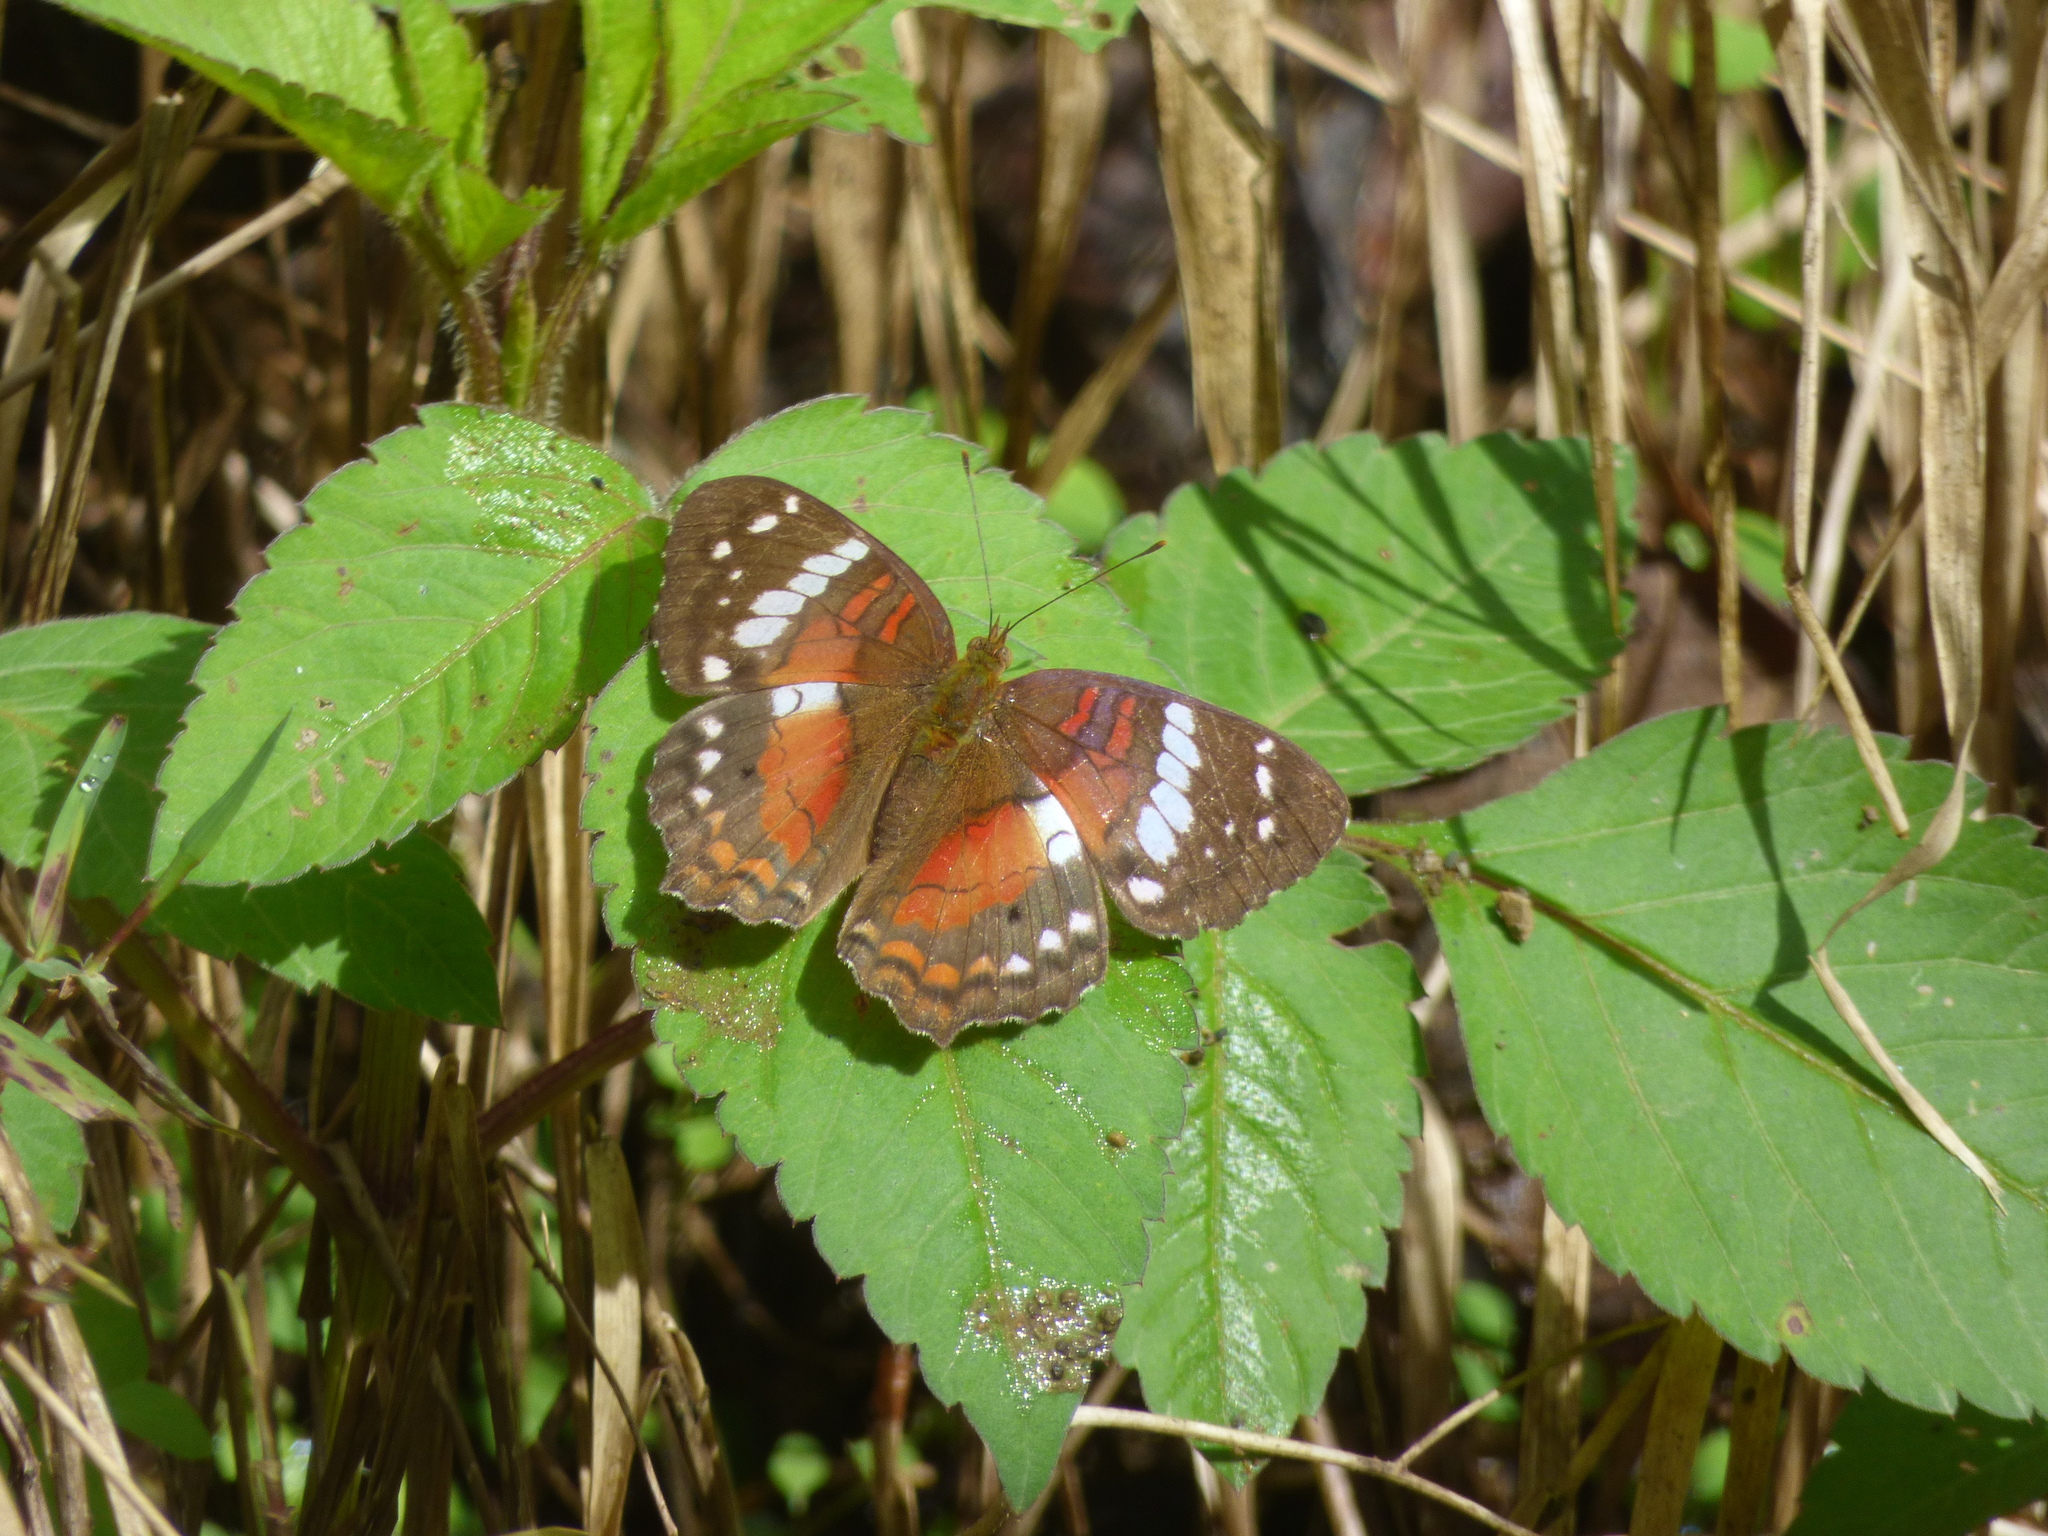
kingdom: Animalia
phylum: Arthropoda
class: Insecta
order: Lepidoptera
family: Nymphalidae
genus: Anartia
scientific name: Anartia amathea
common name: Red peacock
